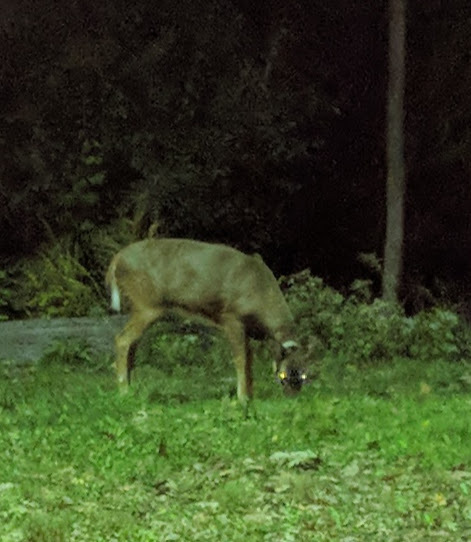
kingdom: Animalia
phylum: Chordata
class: Mammalia
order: Artiodactyla
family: Cervidae
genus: Odocoileus
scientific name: Odocoileus virginianus
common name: White-tailed deer
